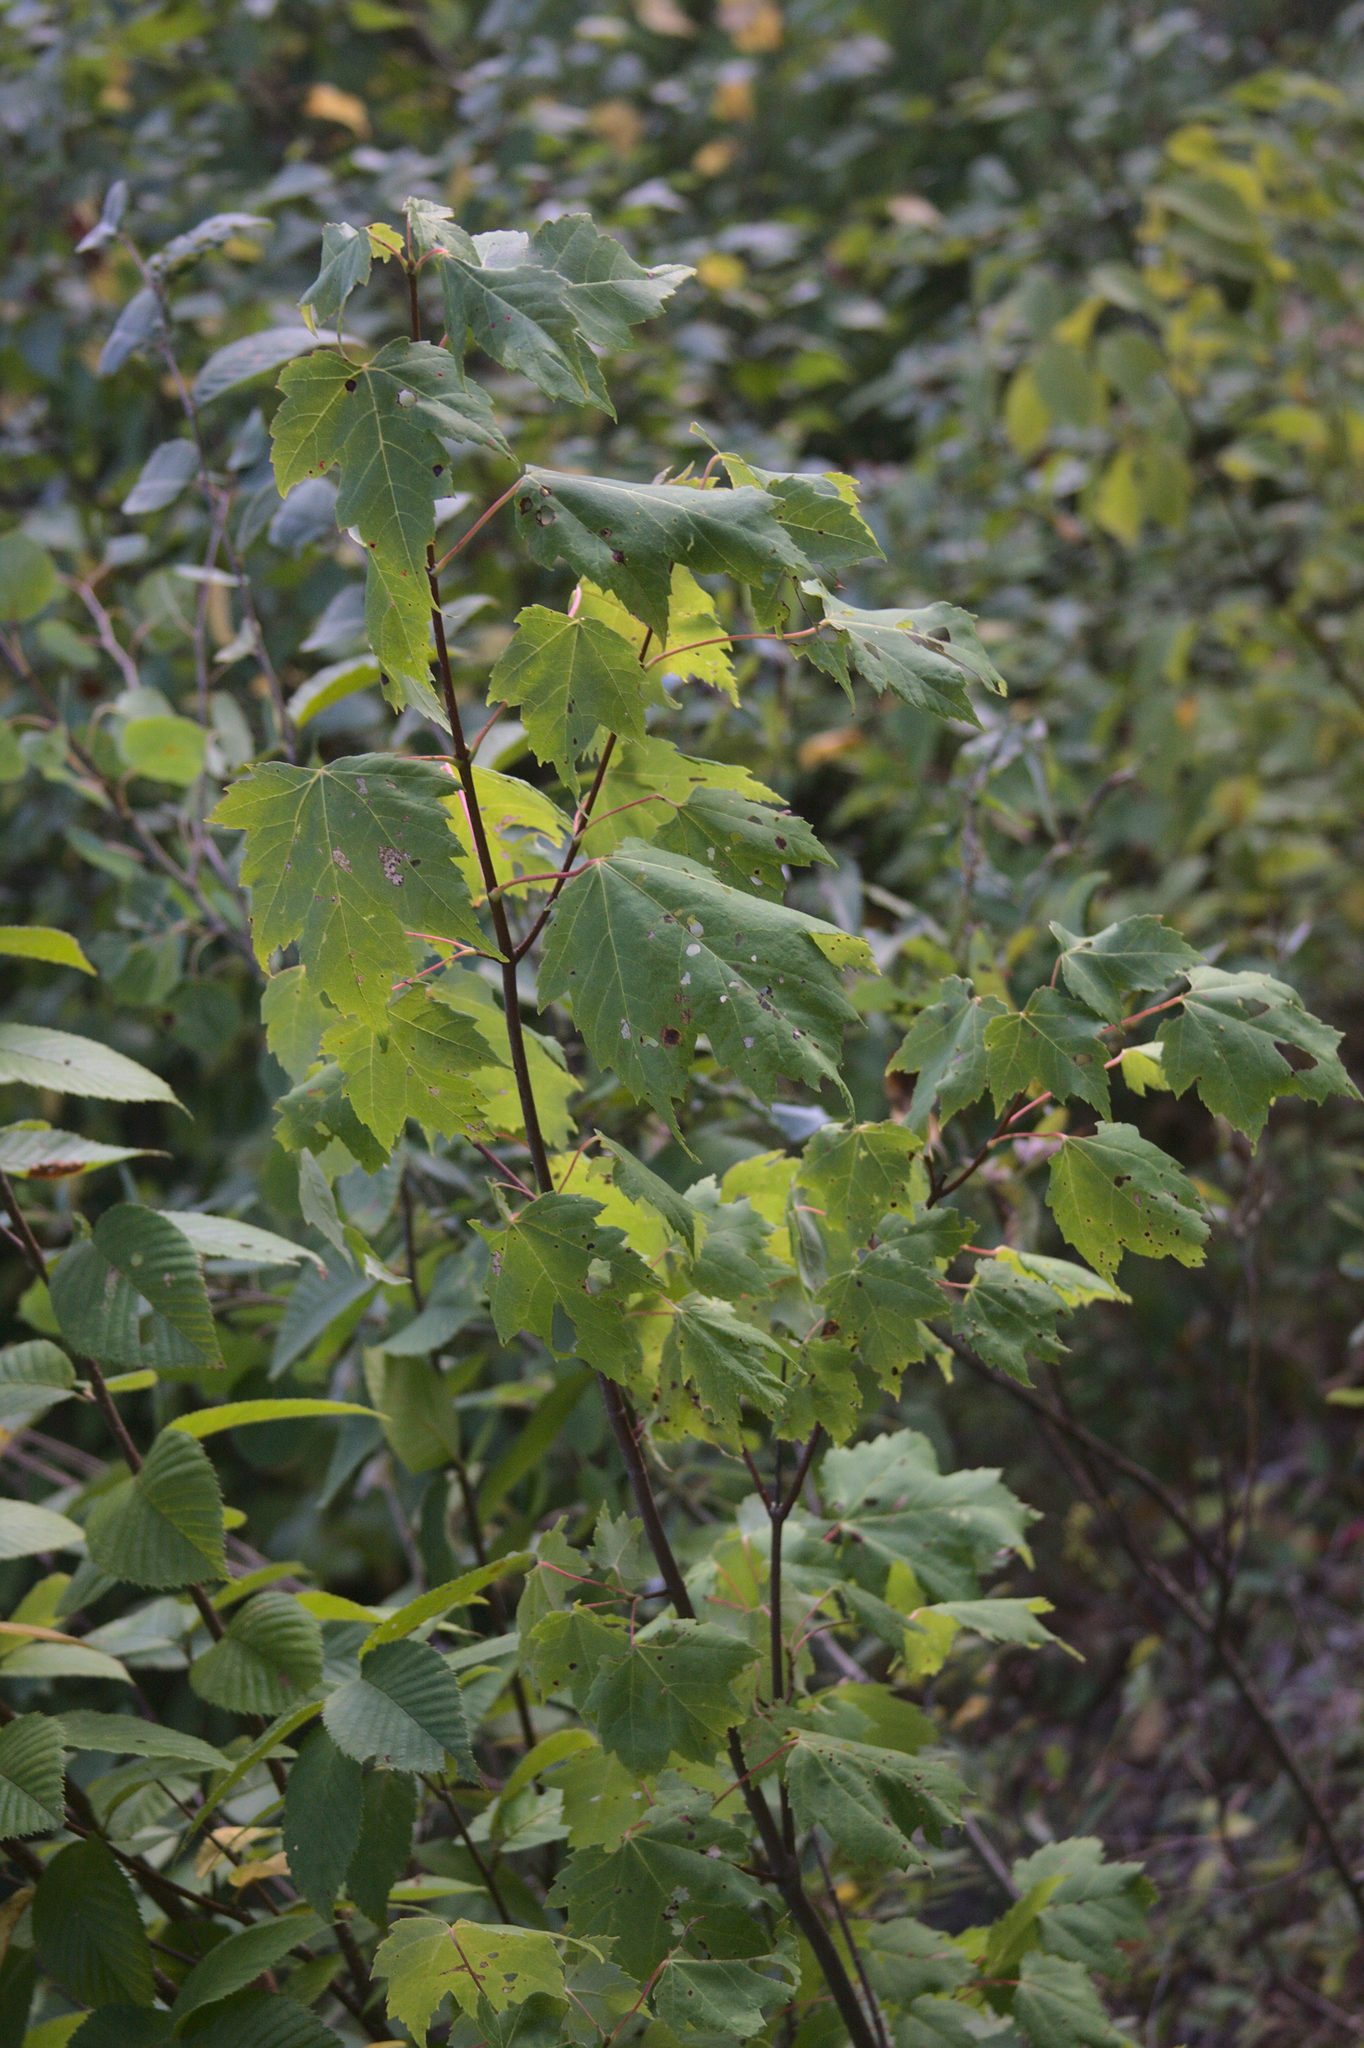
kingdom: Plantae
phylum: Tracheophyta
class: Magnoliopsida
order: Sapindales
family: Sapindaceae
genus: Acer
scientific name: Acer rubrum
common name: Red maple
